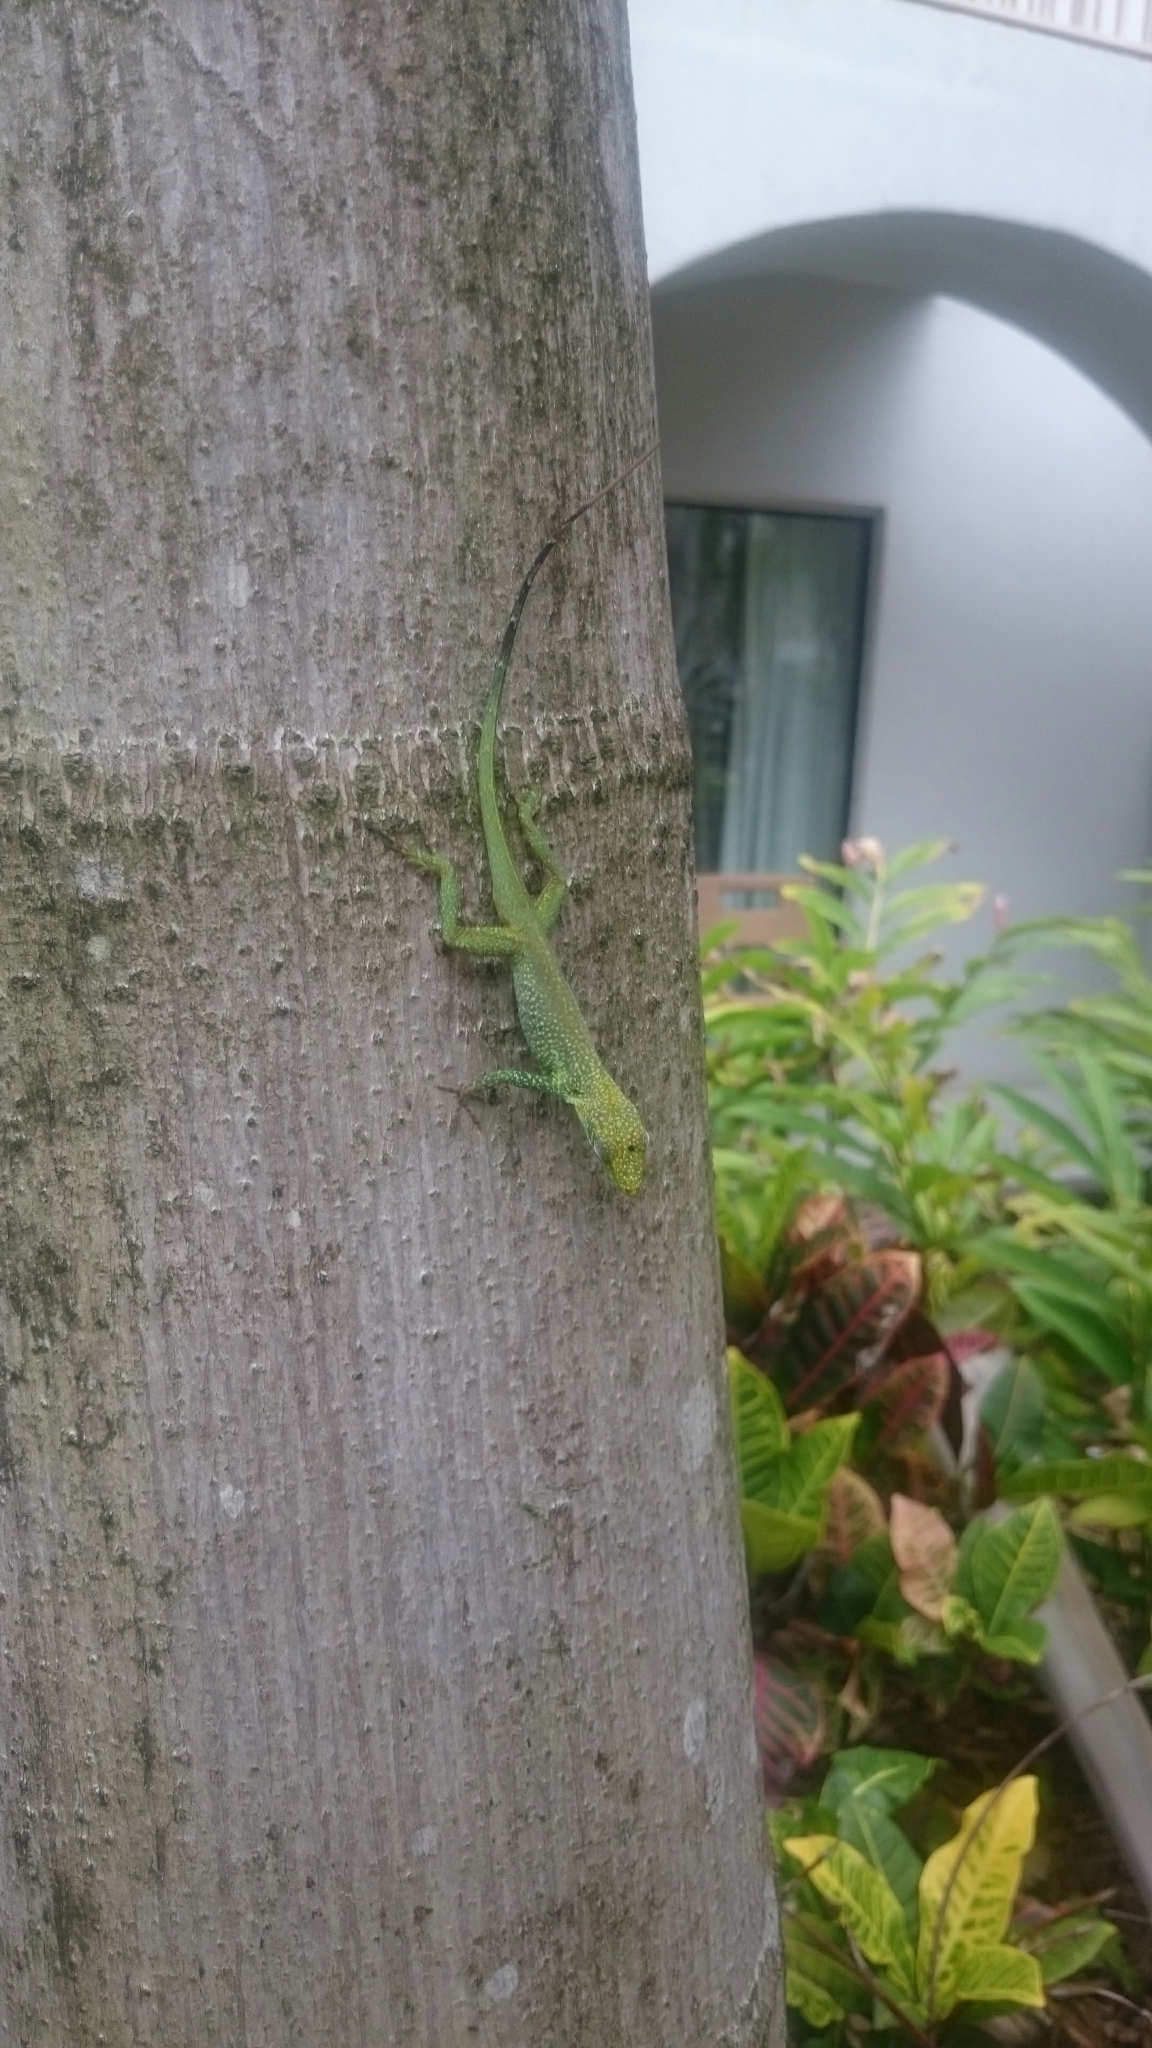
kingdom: Animalia
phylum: Chordata
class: Squamata
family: Dactyloidae
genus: Anolis
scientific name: Anolis conspersus
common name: Grand cayman anole
